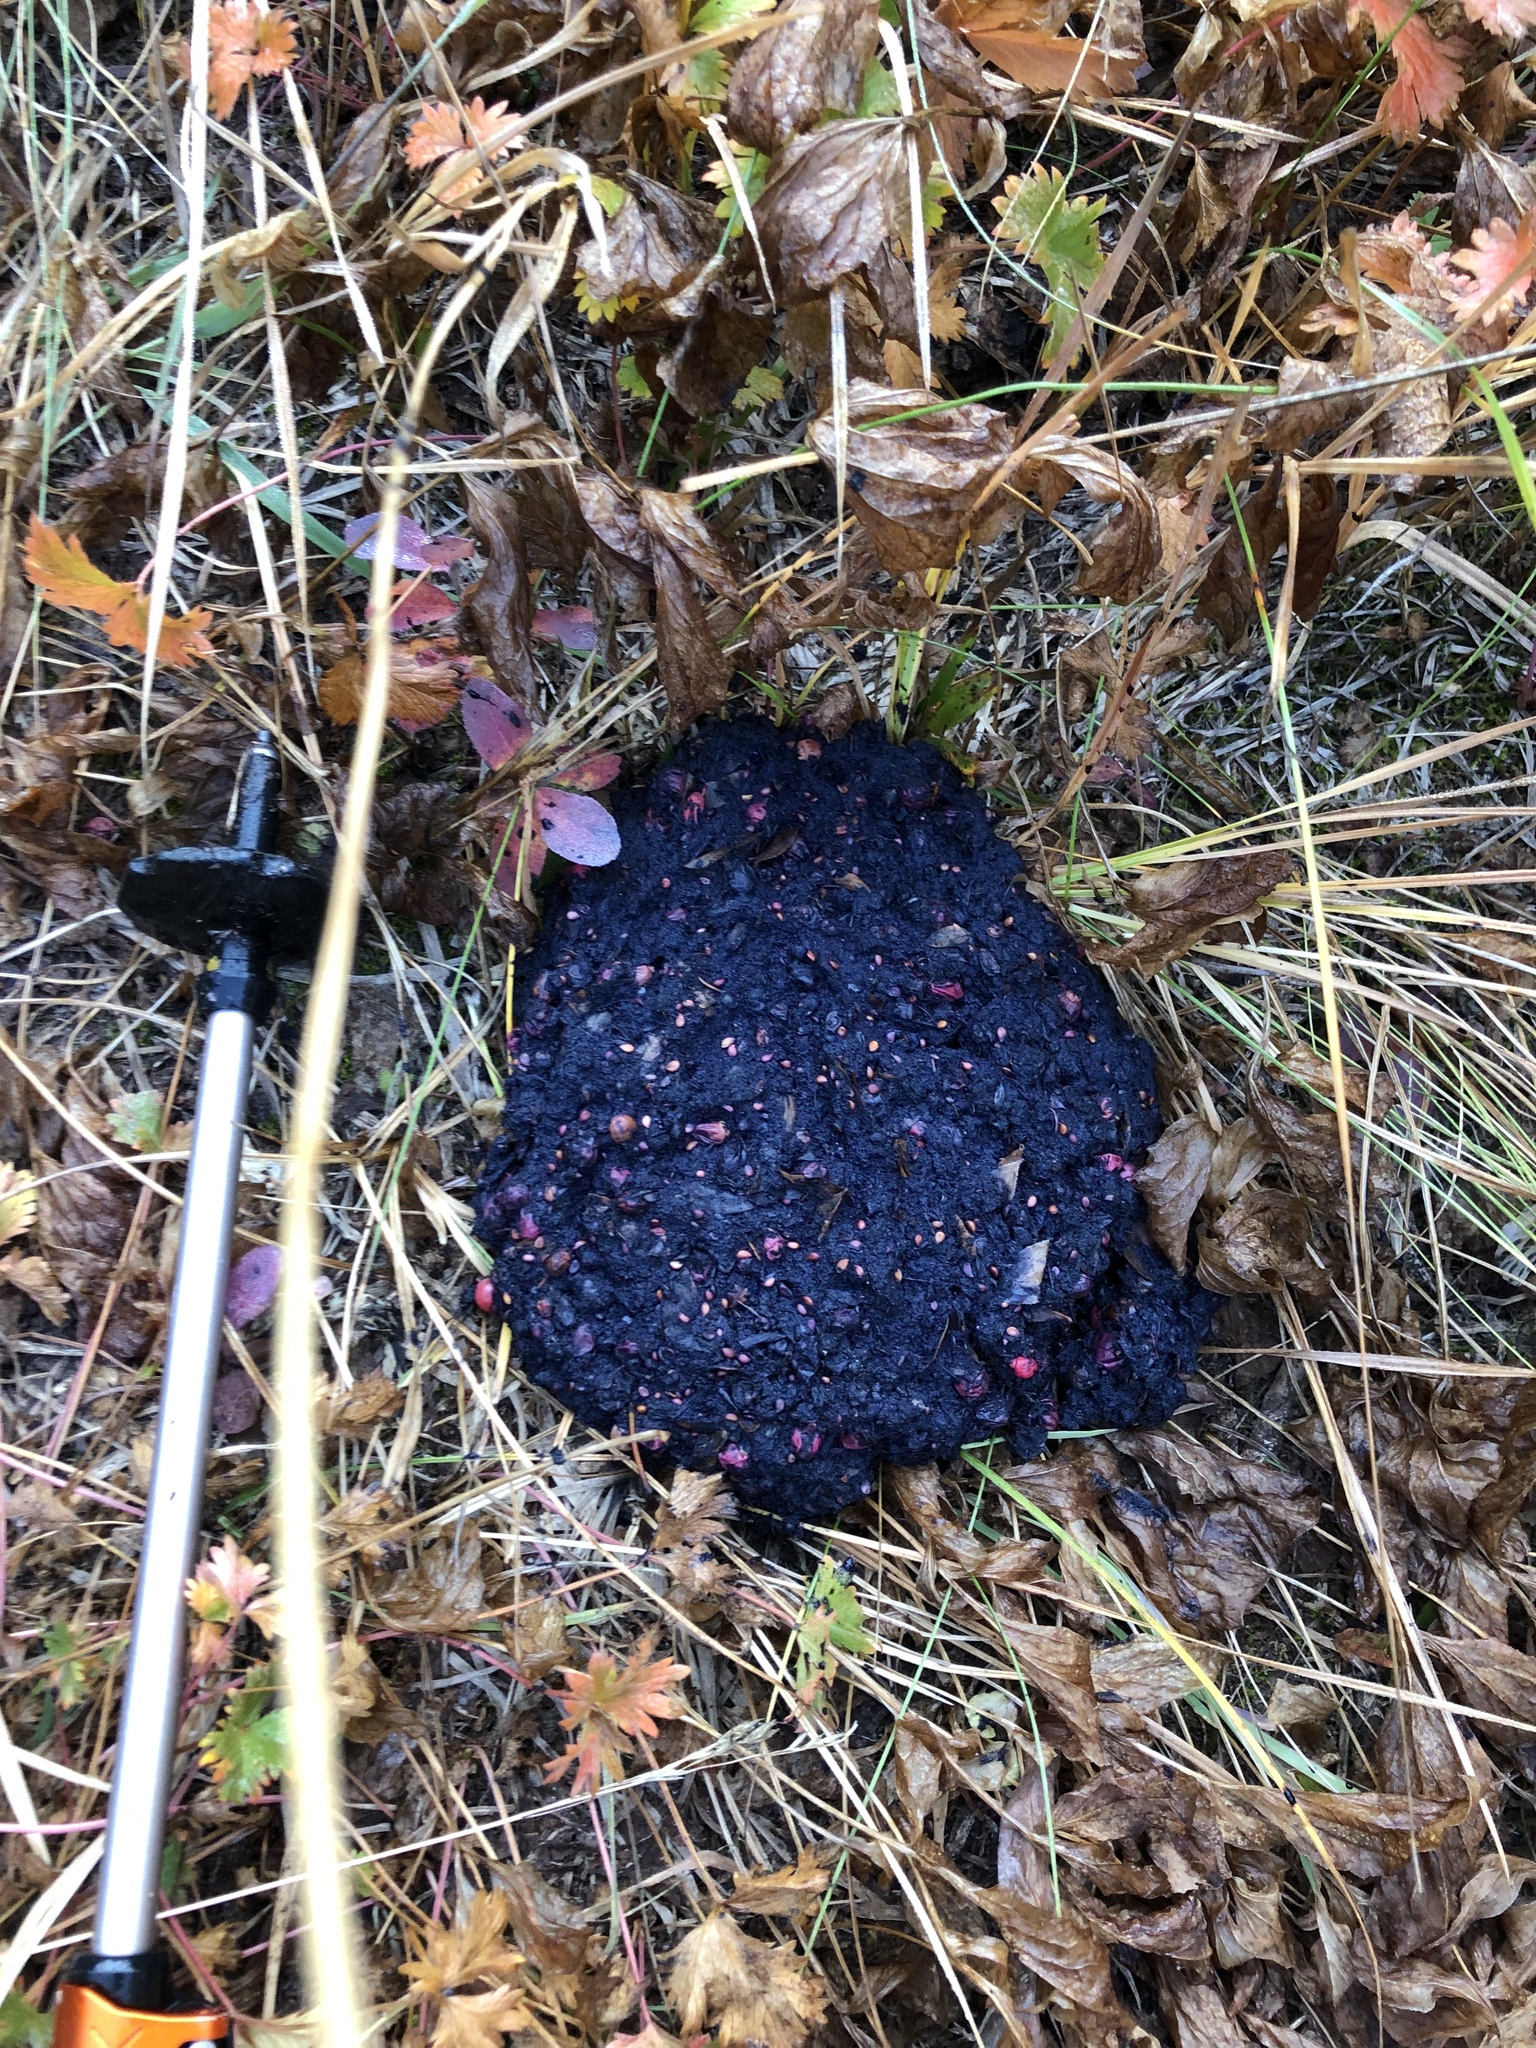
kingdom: Animalia
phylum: Chordata
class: Mammalia
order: Carnivora
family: Ursidae
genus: Ursus
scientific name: Ursus americanus
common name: American black bear
